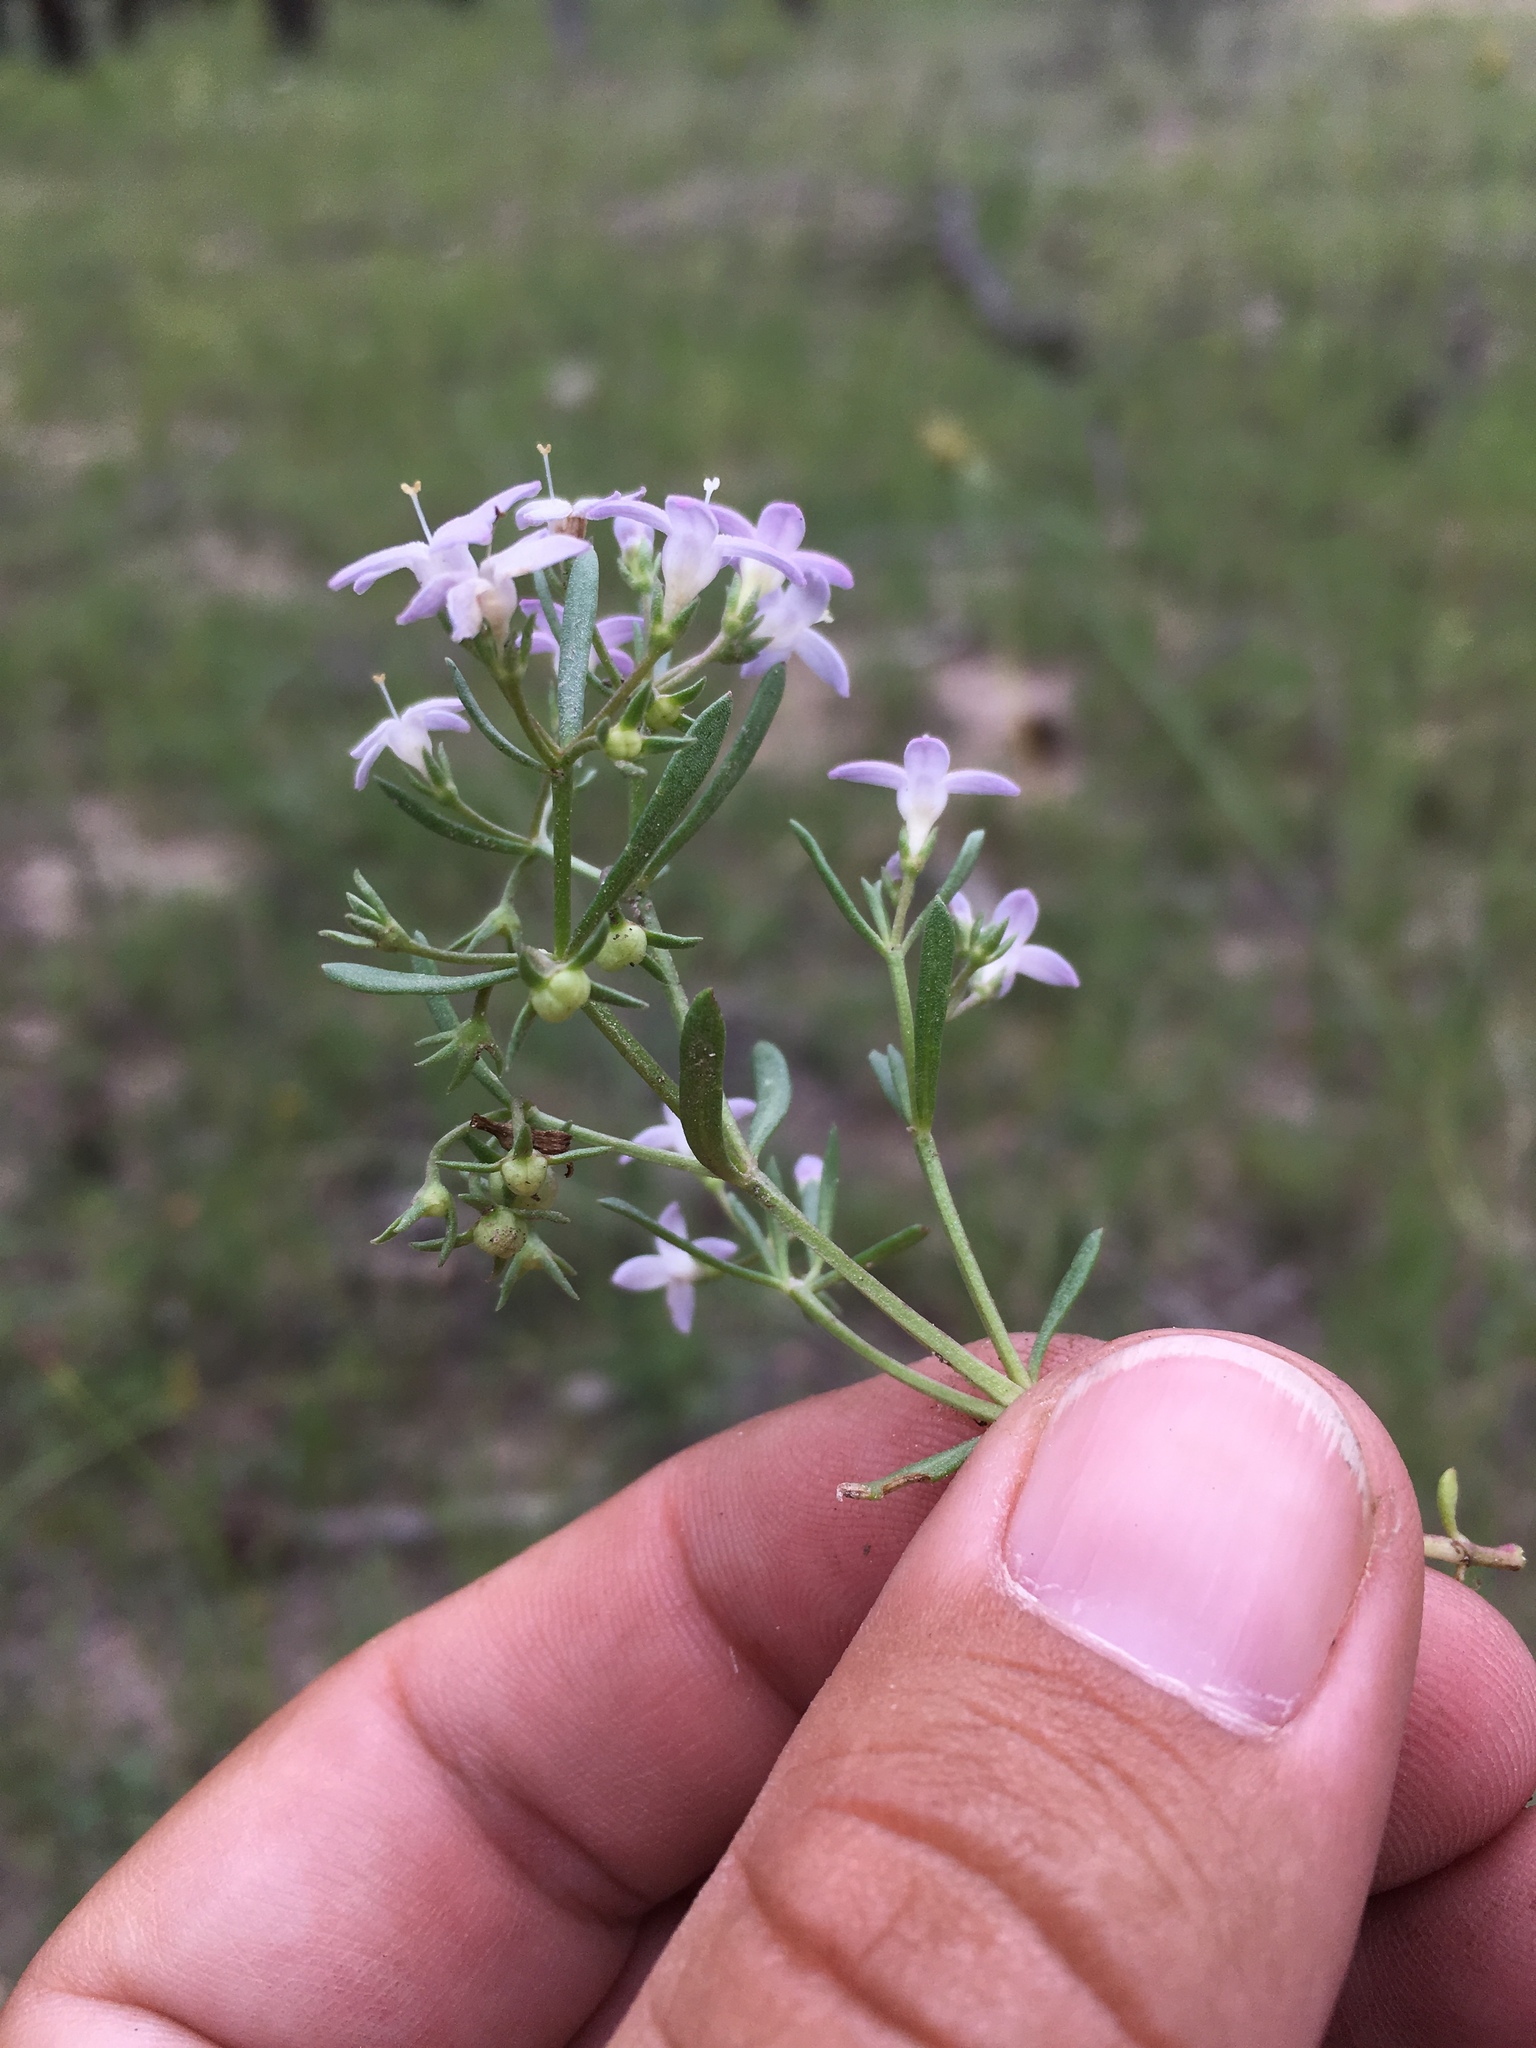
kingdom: Plantae
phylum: Tracheophyta
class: Magnoliopsida
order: Gentianales
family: Rubiaceae
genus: Houstonia
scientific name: Houstonia wrightii
